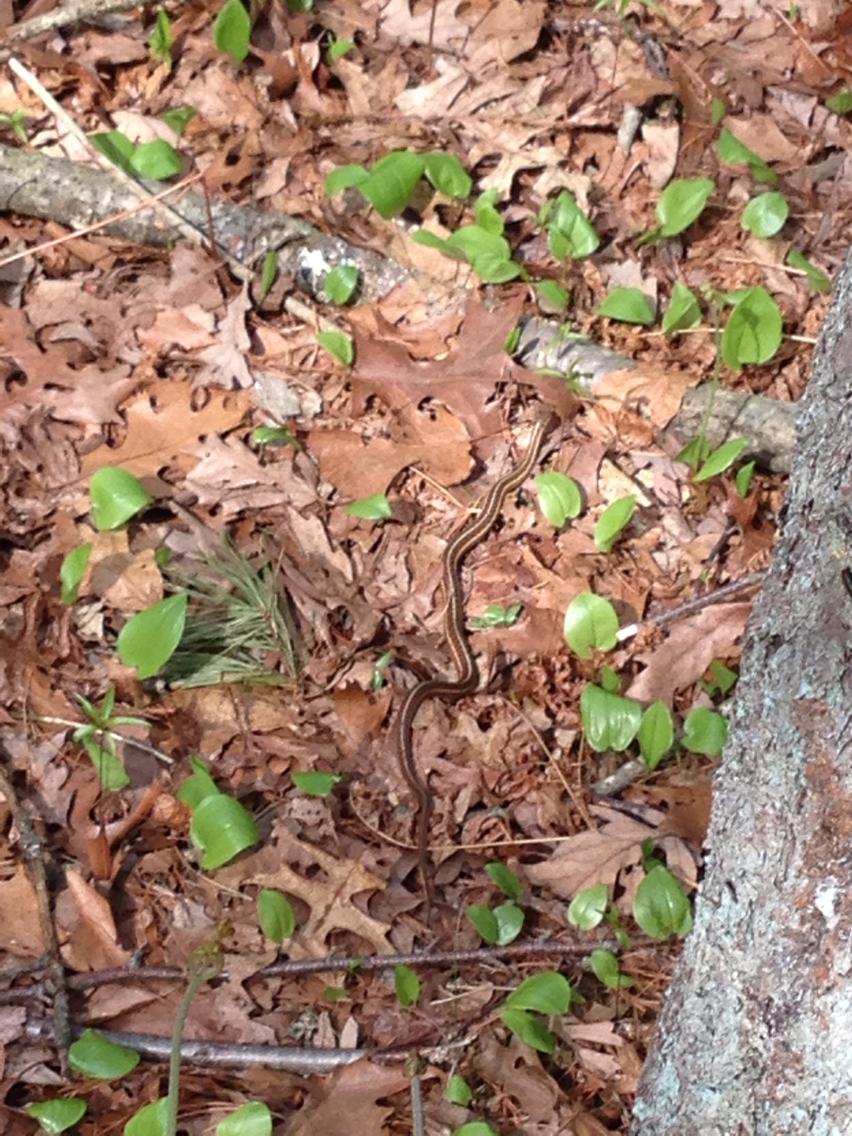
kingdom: Animalia
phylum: Chordata
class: Squamata
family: Colubridae
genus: Thamnophis
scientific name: Thamnophis sirtalis
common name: Common garter snake
